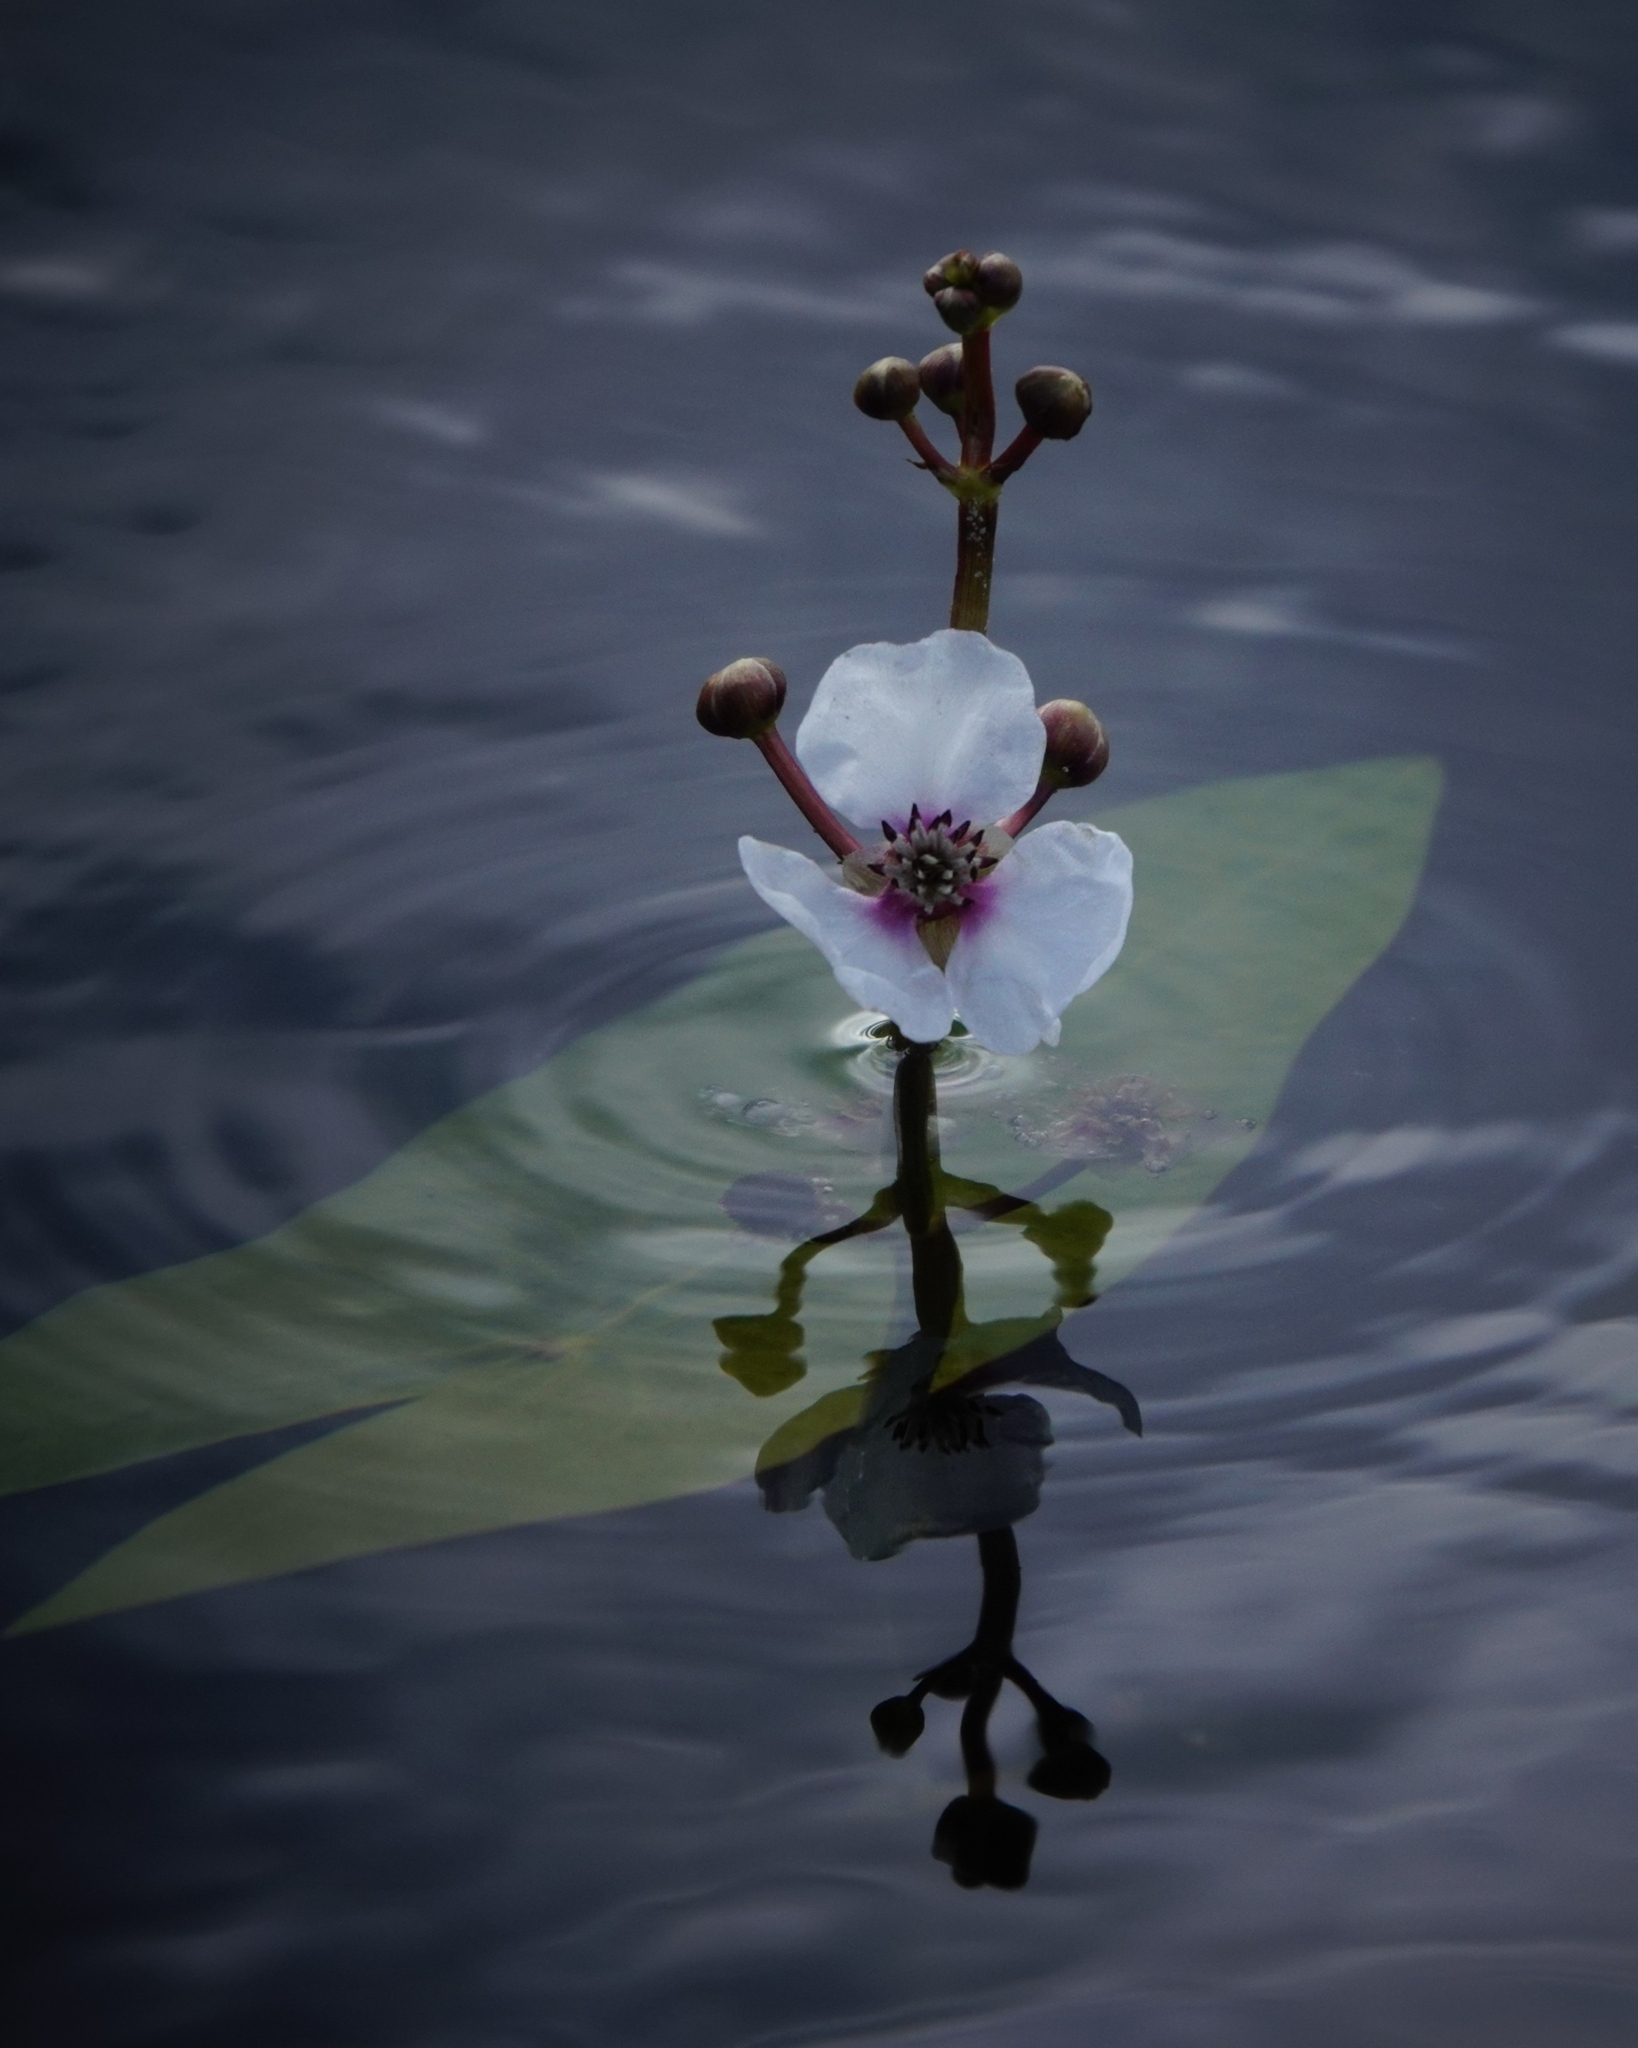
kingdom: Plantae
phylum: Tracheophyta
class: Liliopsida
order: Alismatales
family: Alismataceae
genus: Sagittaria
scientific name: Sagittaria sagittifolia
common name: Arrowhead
